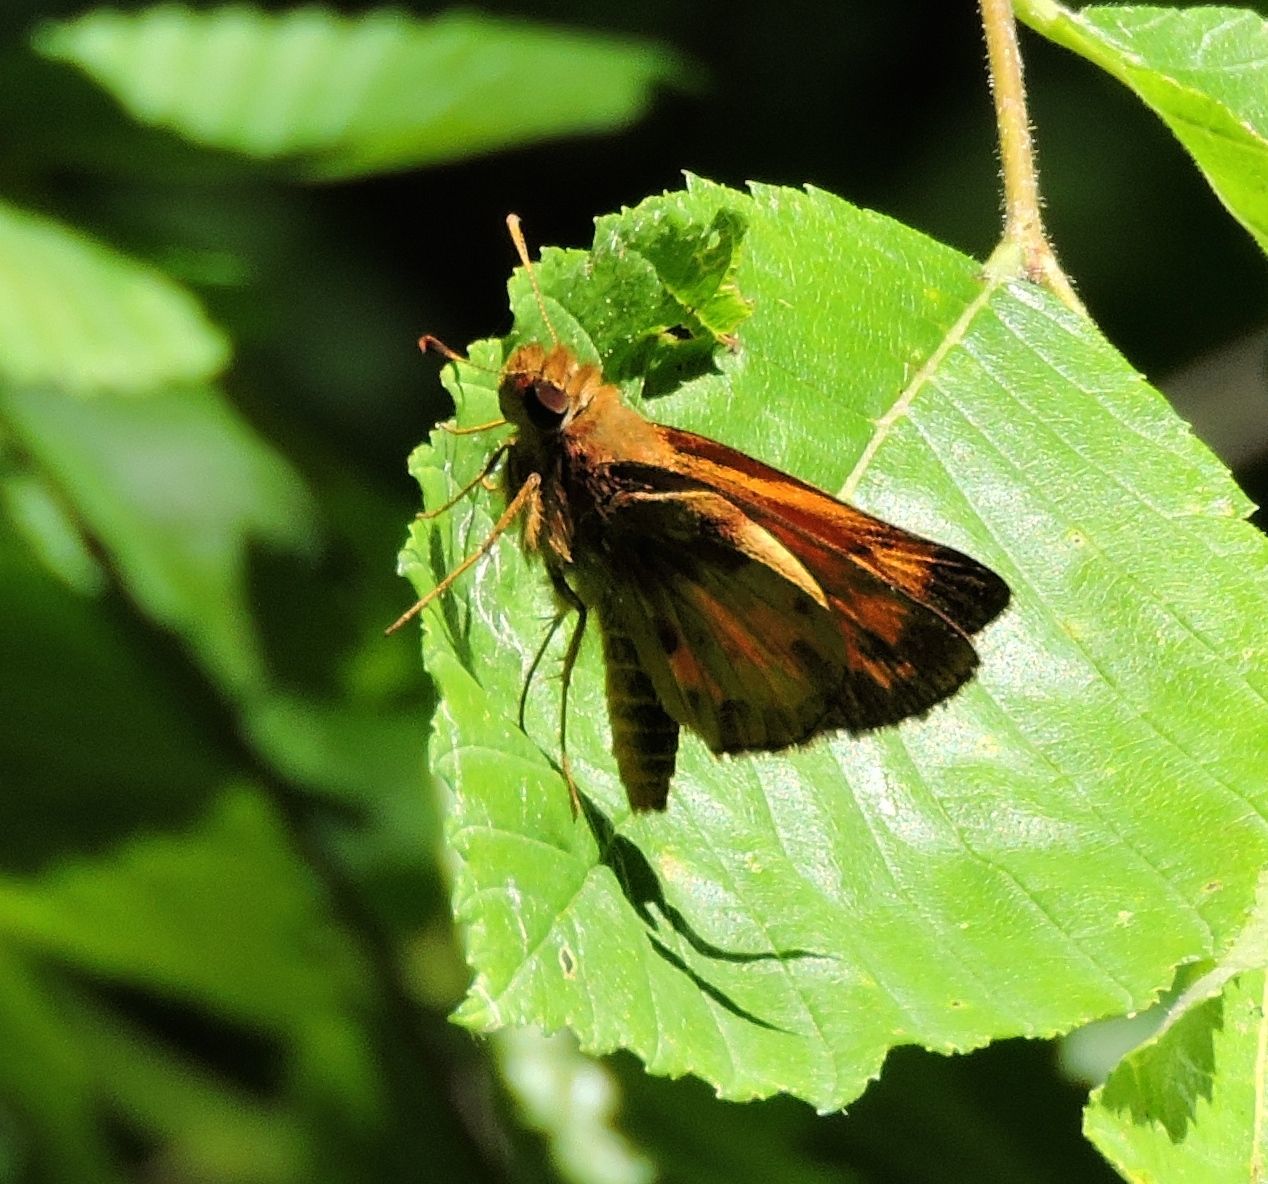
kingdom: Animalia
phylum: Arthropoda
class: Insecta
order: Lepidoptera
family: Hesperiidae
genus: Lon
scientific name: Lon zabulon
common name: Zabulon skipper
